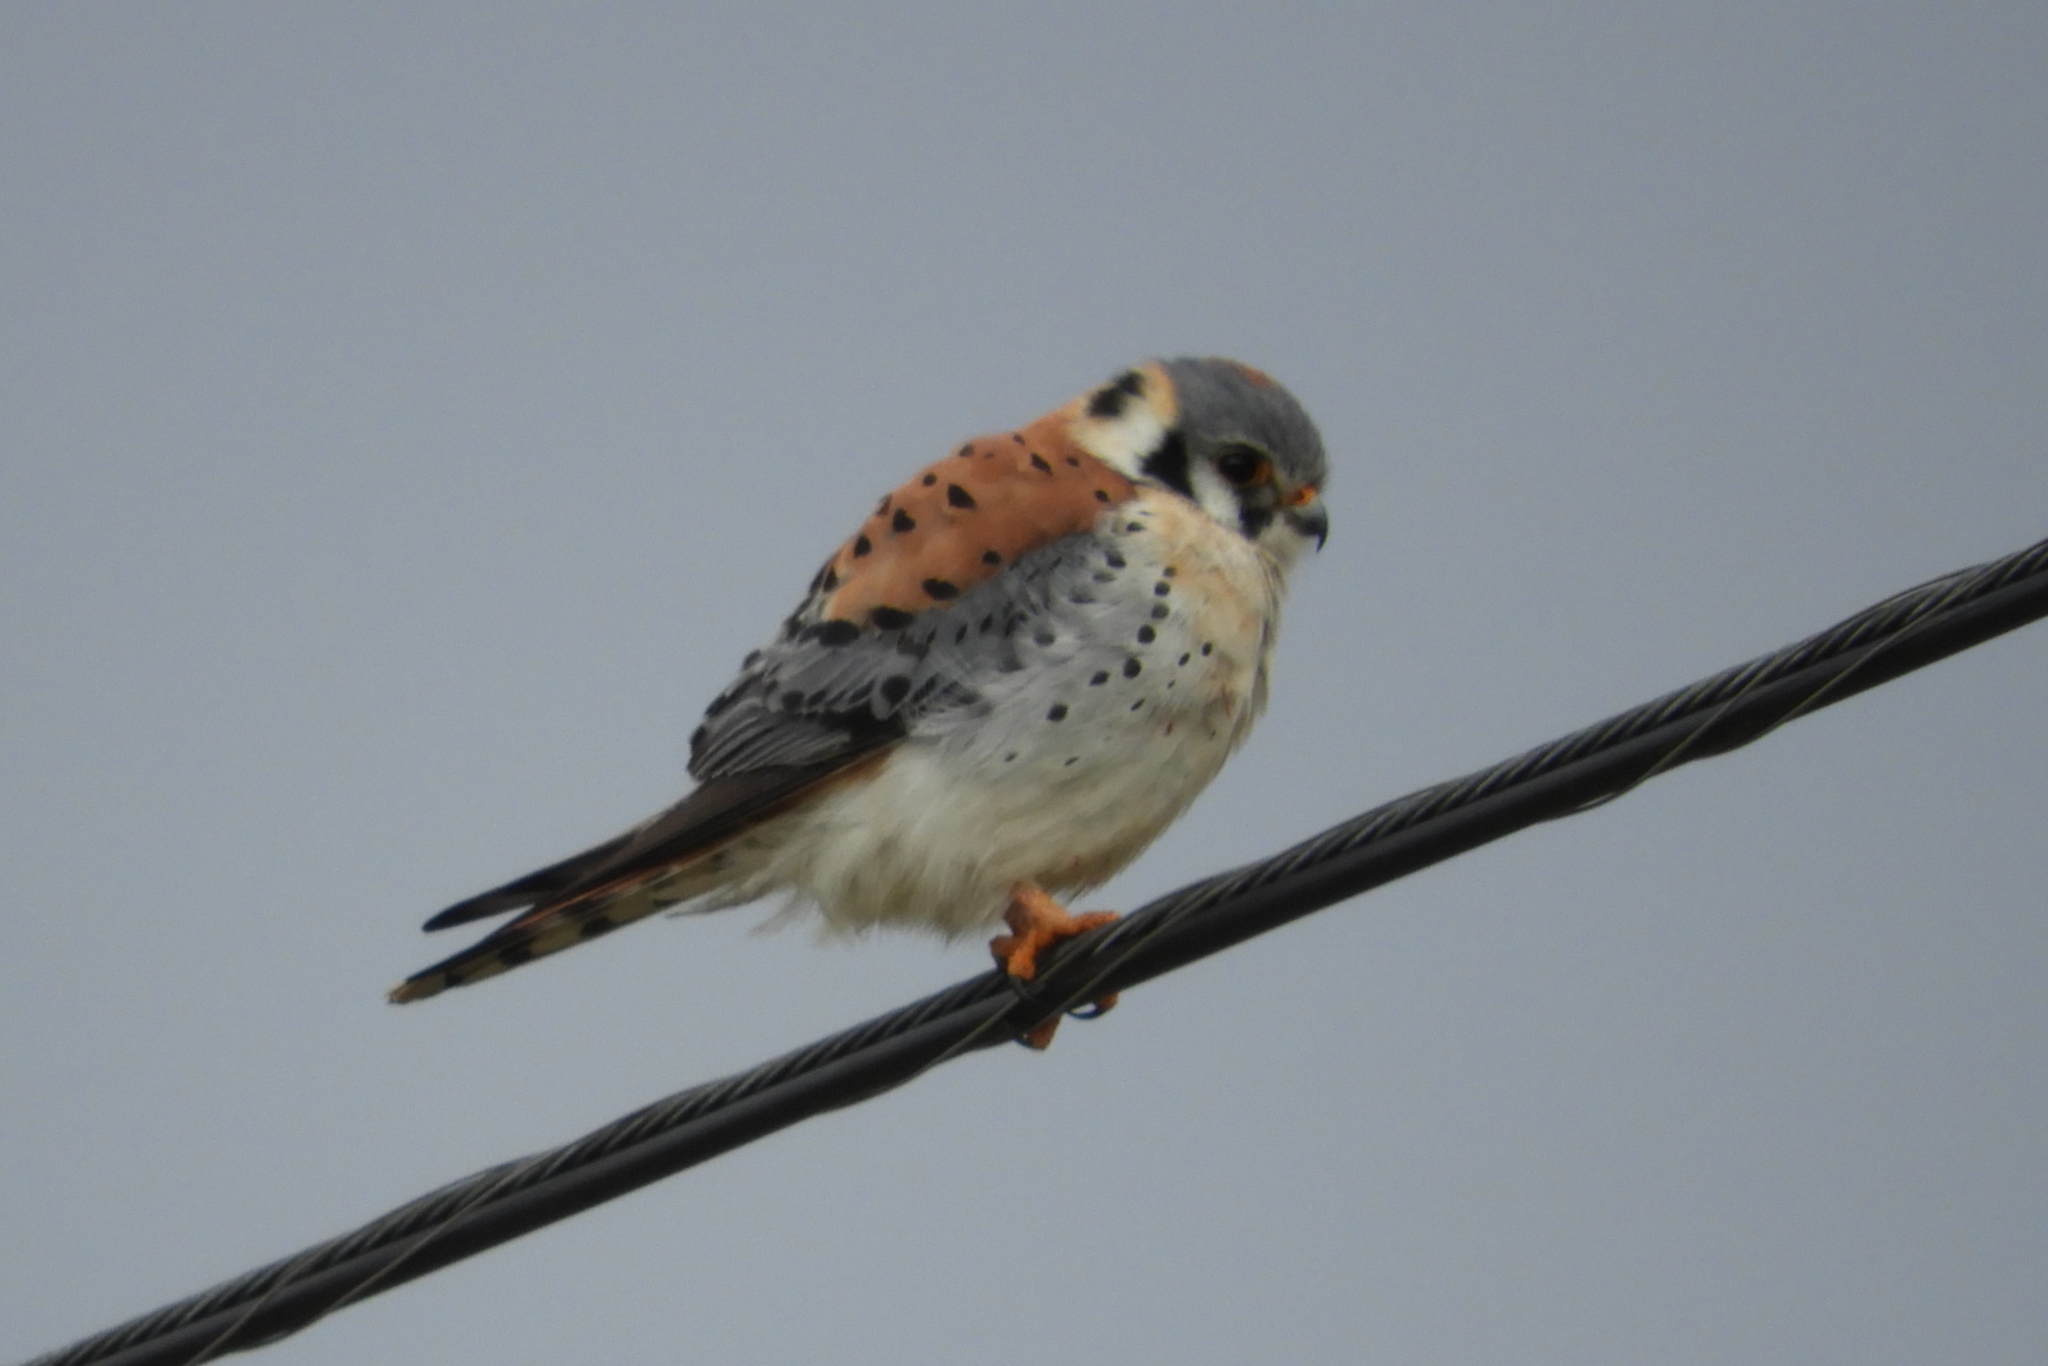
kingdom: Animalia
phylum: Chordata
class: Aves
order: Falconiformes
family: Falconidae
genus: Falco
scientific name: Falco sparverius
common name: American kestrel
